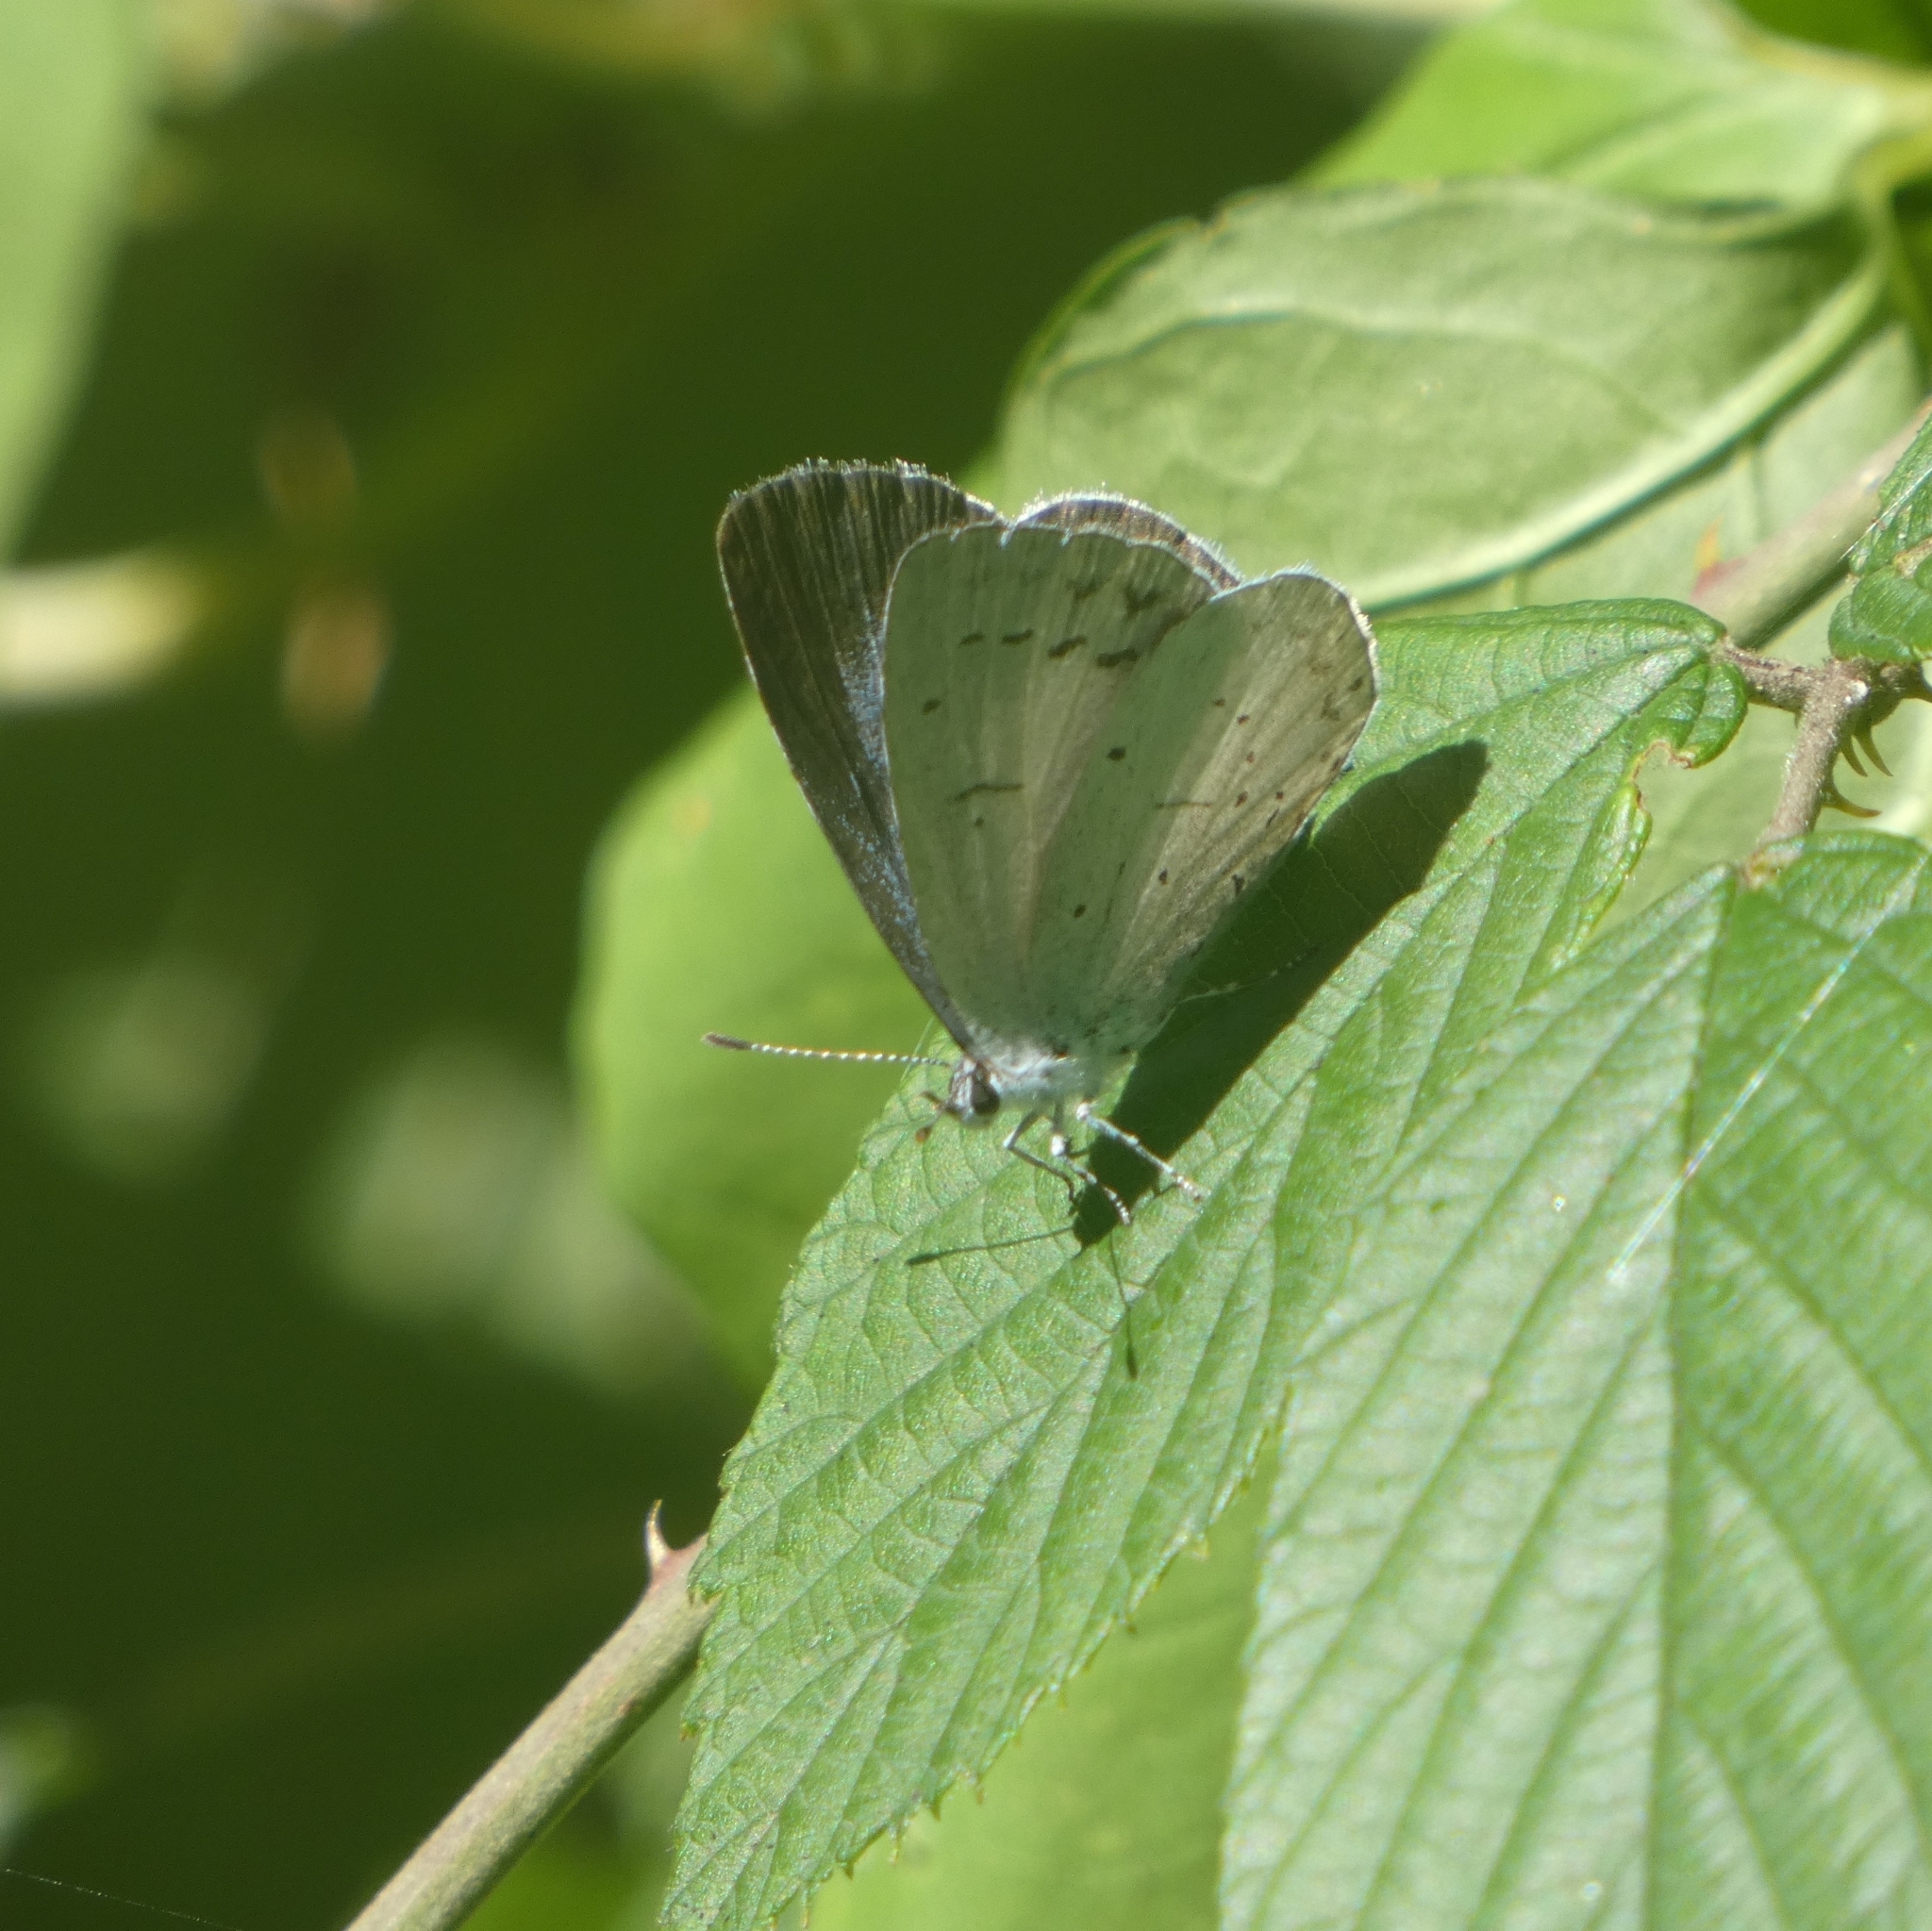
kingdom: Animalia
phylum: Arthropoda
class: Insecta
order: Lepidoptera
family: Lycaenidae
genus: Celastrina
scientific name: Celastrina argiolus
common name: Holly blue
